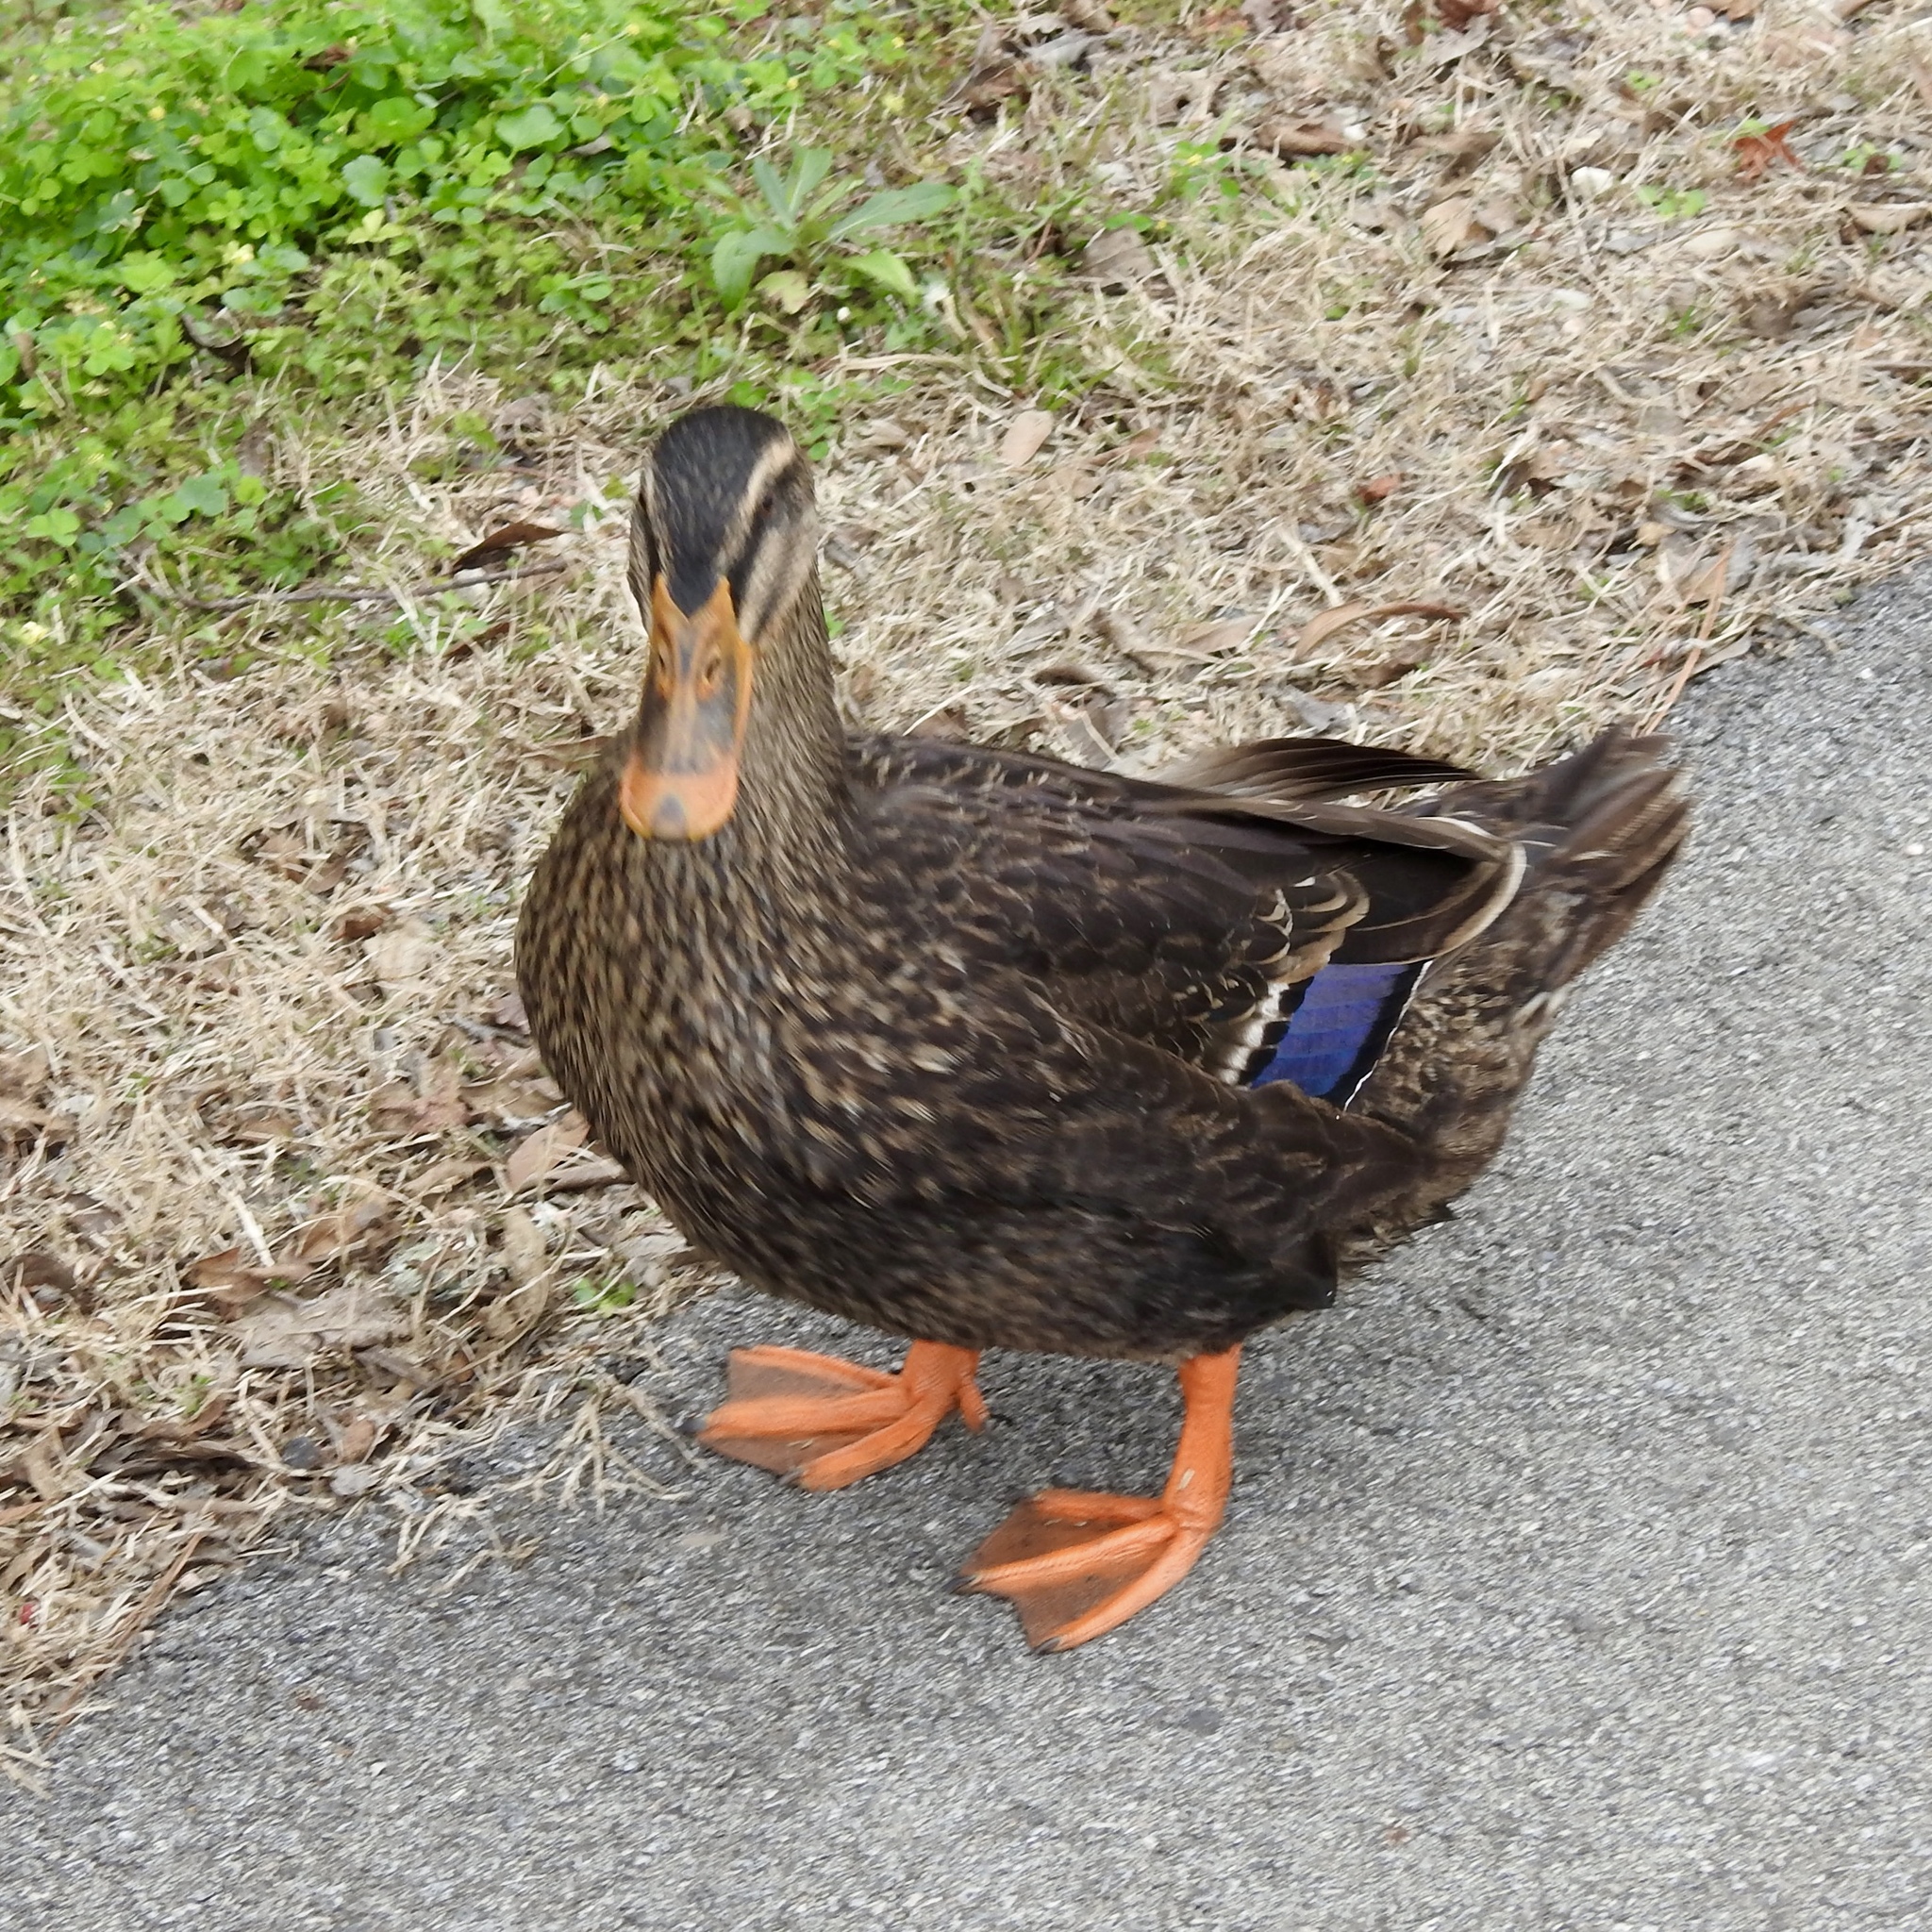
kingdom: Animalia
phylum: Chordata
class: Aves
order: Anseriformes
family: Anatidae
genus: Anas
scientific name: Anas platyrhynchos
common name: Mallard
